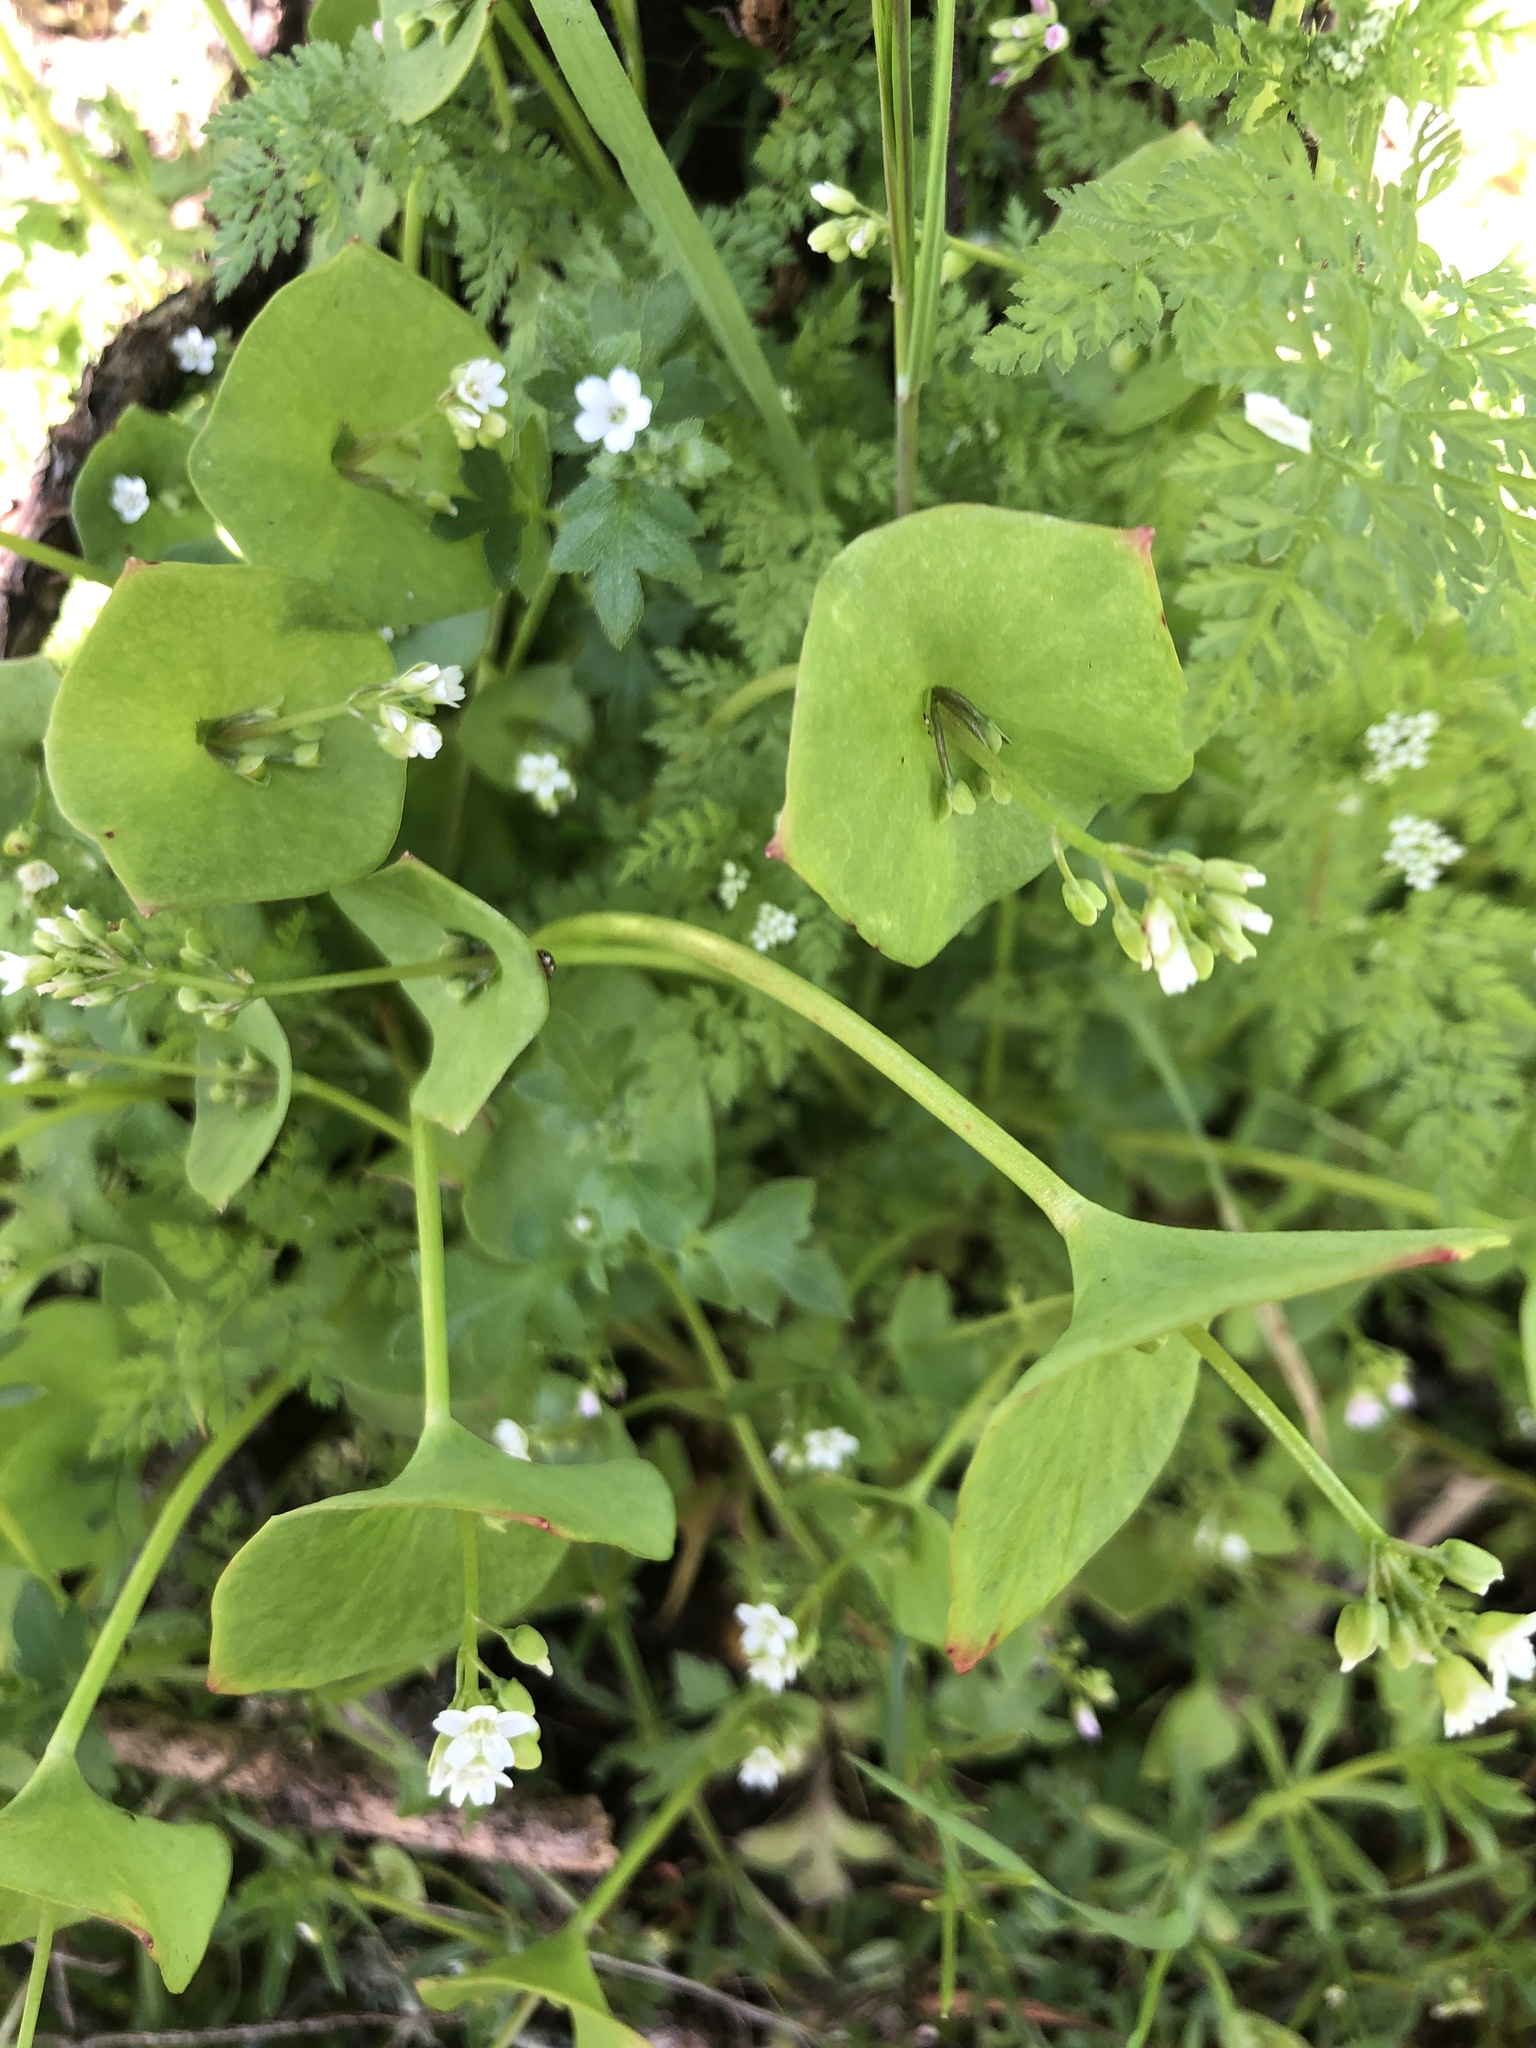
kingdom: Plantae
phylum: Tracheophyta
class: Magnoliopsida
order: Caryophyllales
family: Montiaceae
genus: Claytonia
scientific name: Claytonia perfoliata
